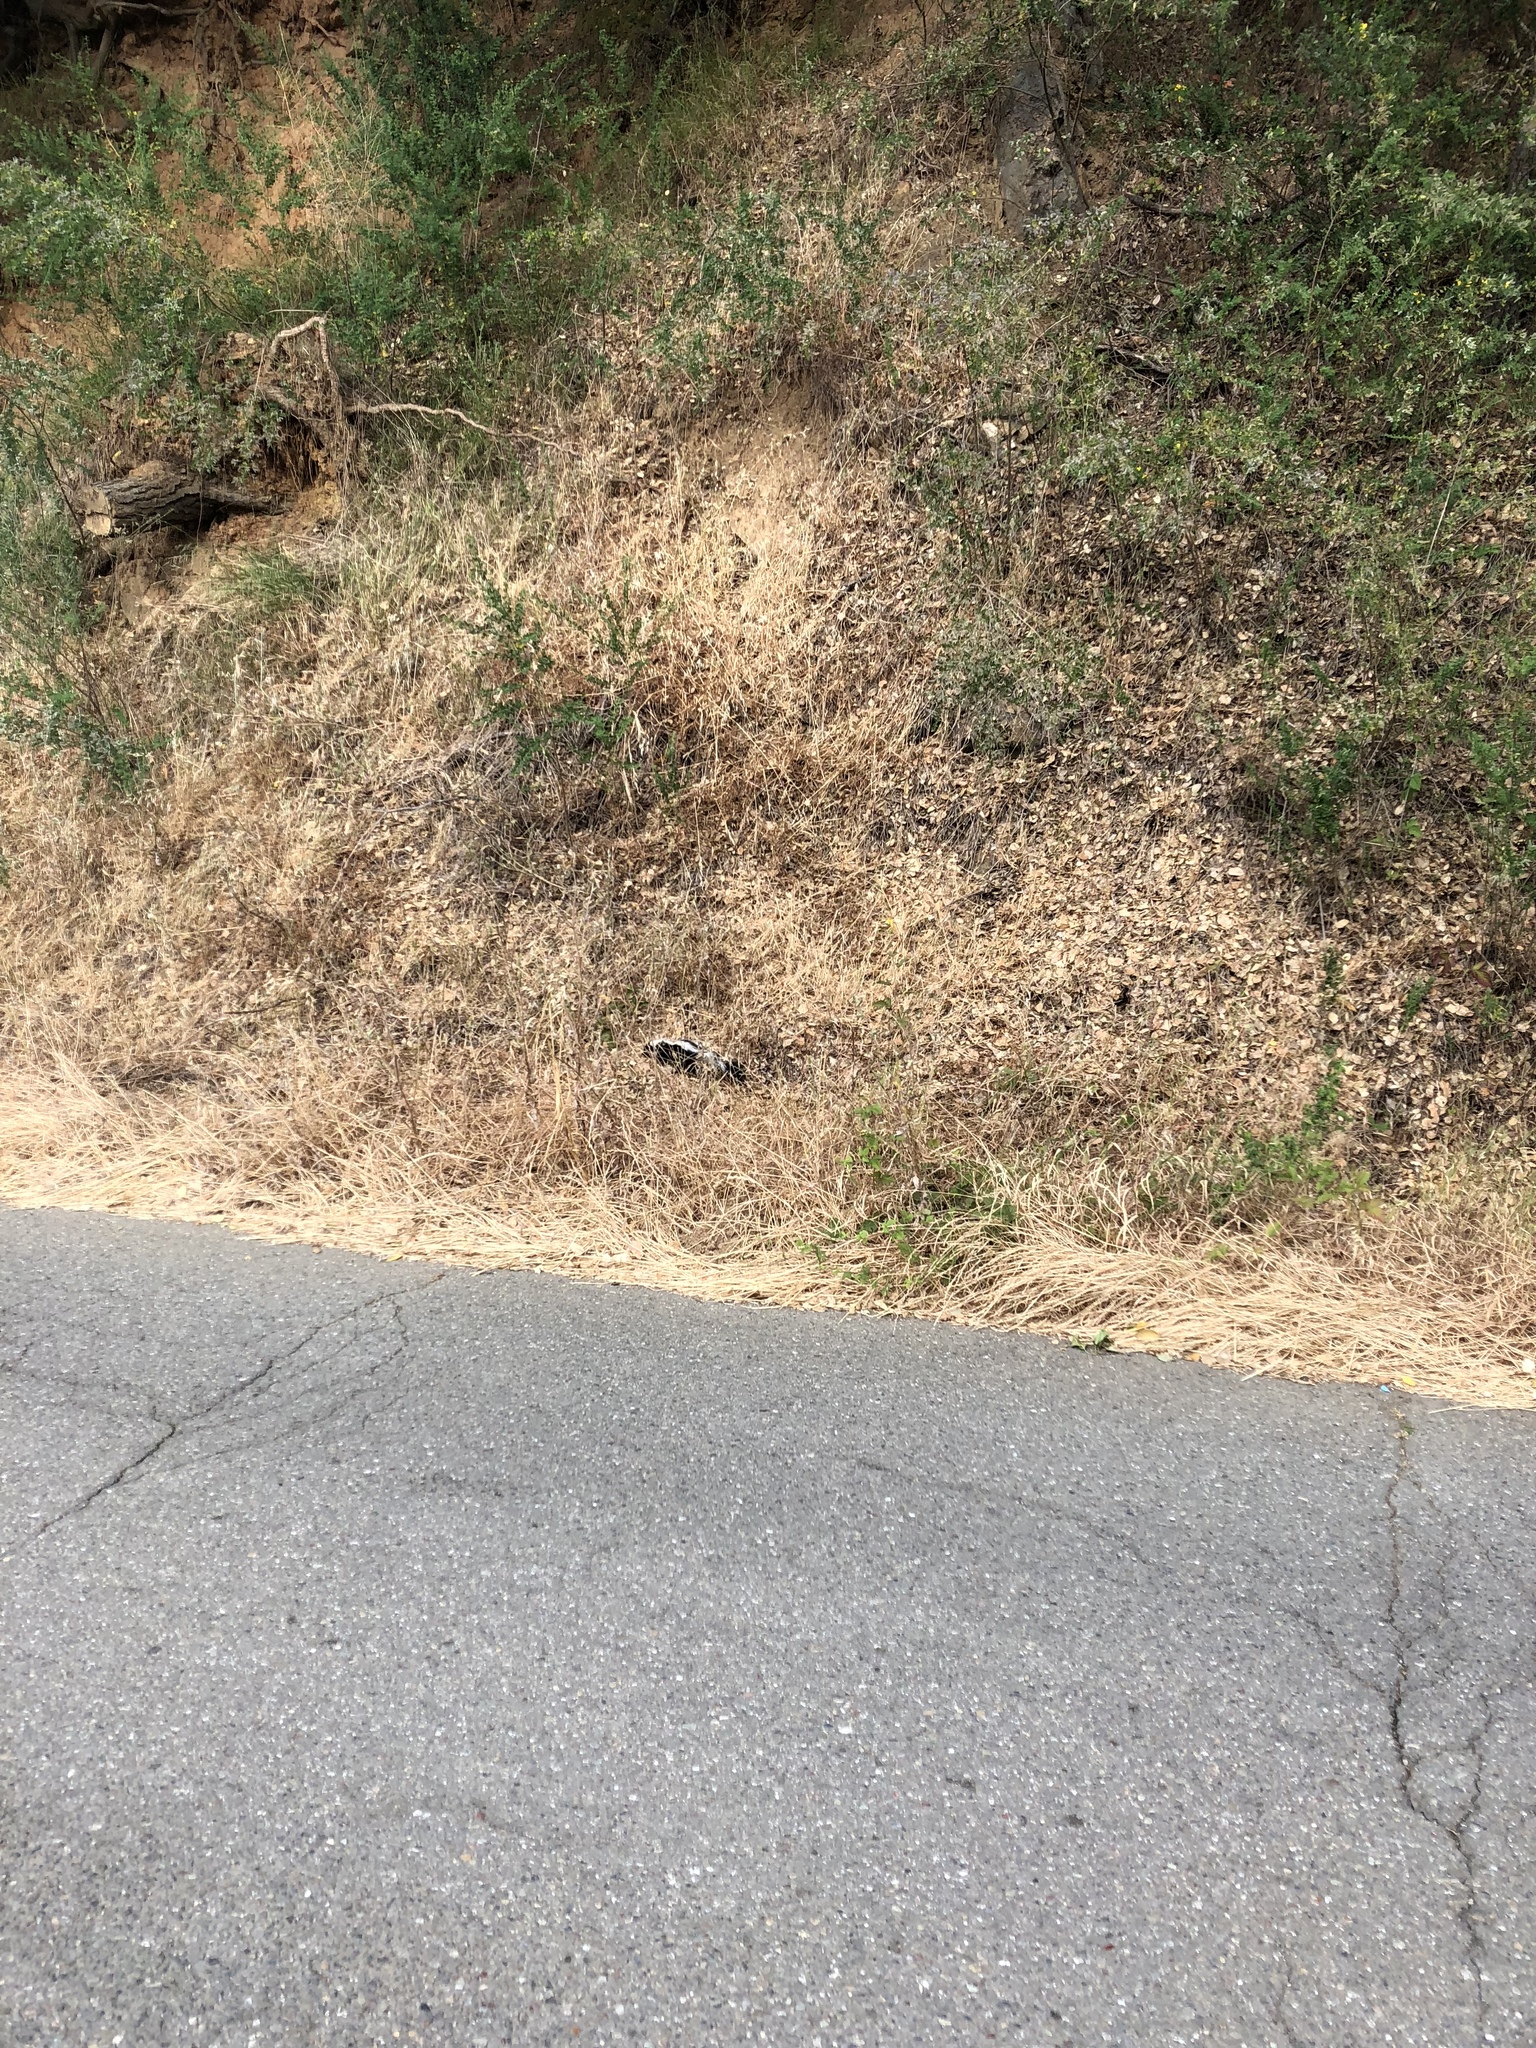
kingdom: Animalia
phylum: Chordata
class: Mammalia
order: Carnivora
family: Mephitidae
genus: Mephitis
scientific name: Mephitis mephitis
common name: Striped skunk
